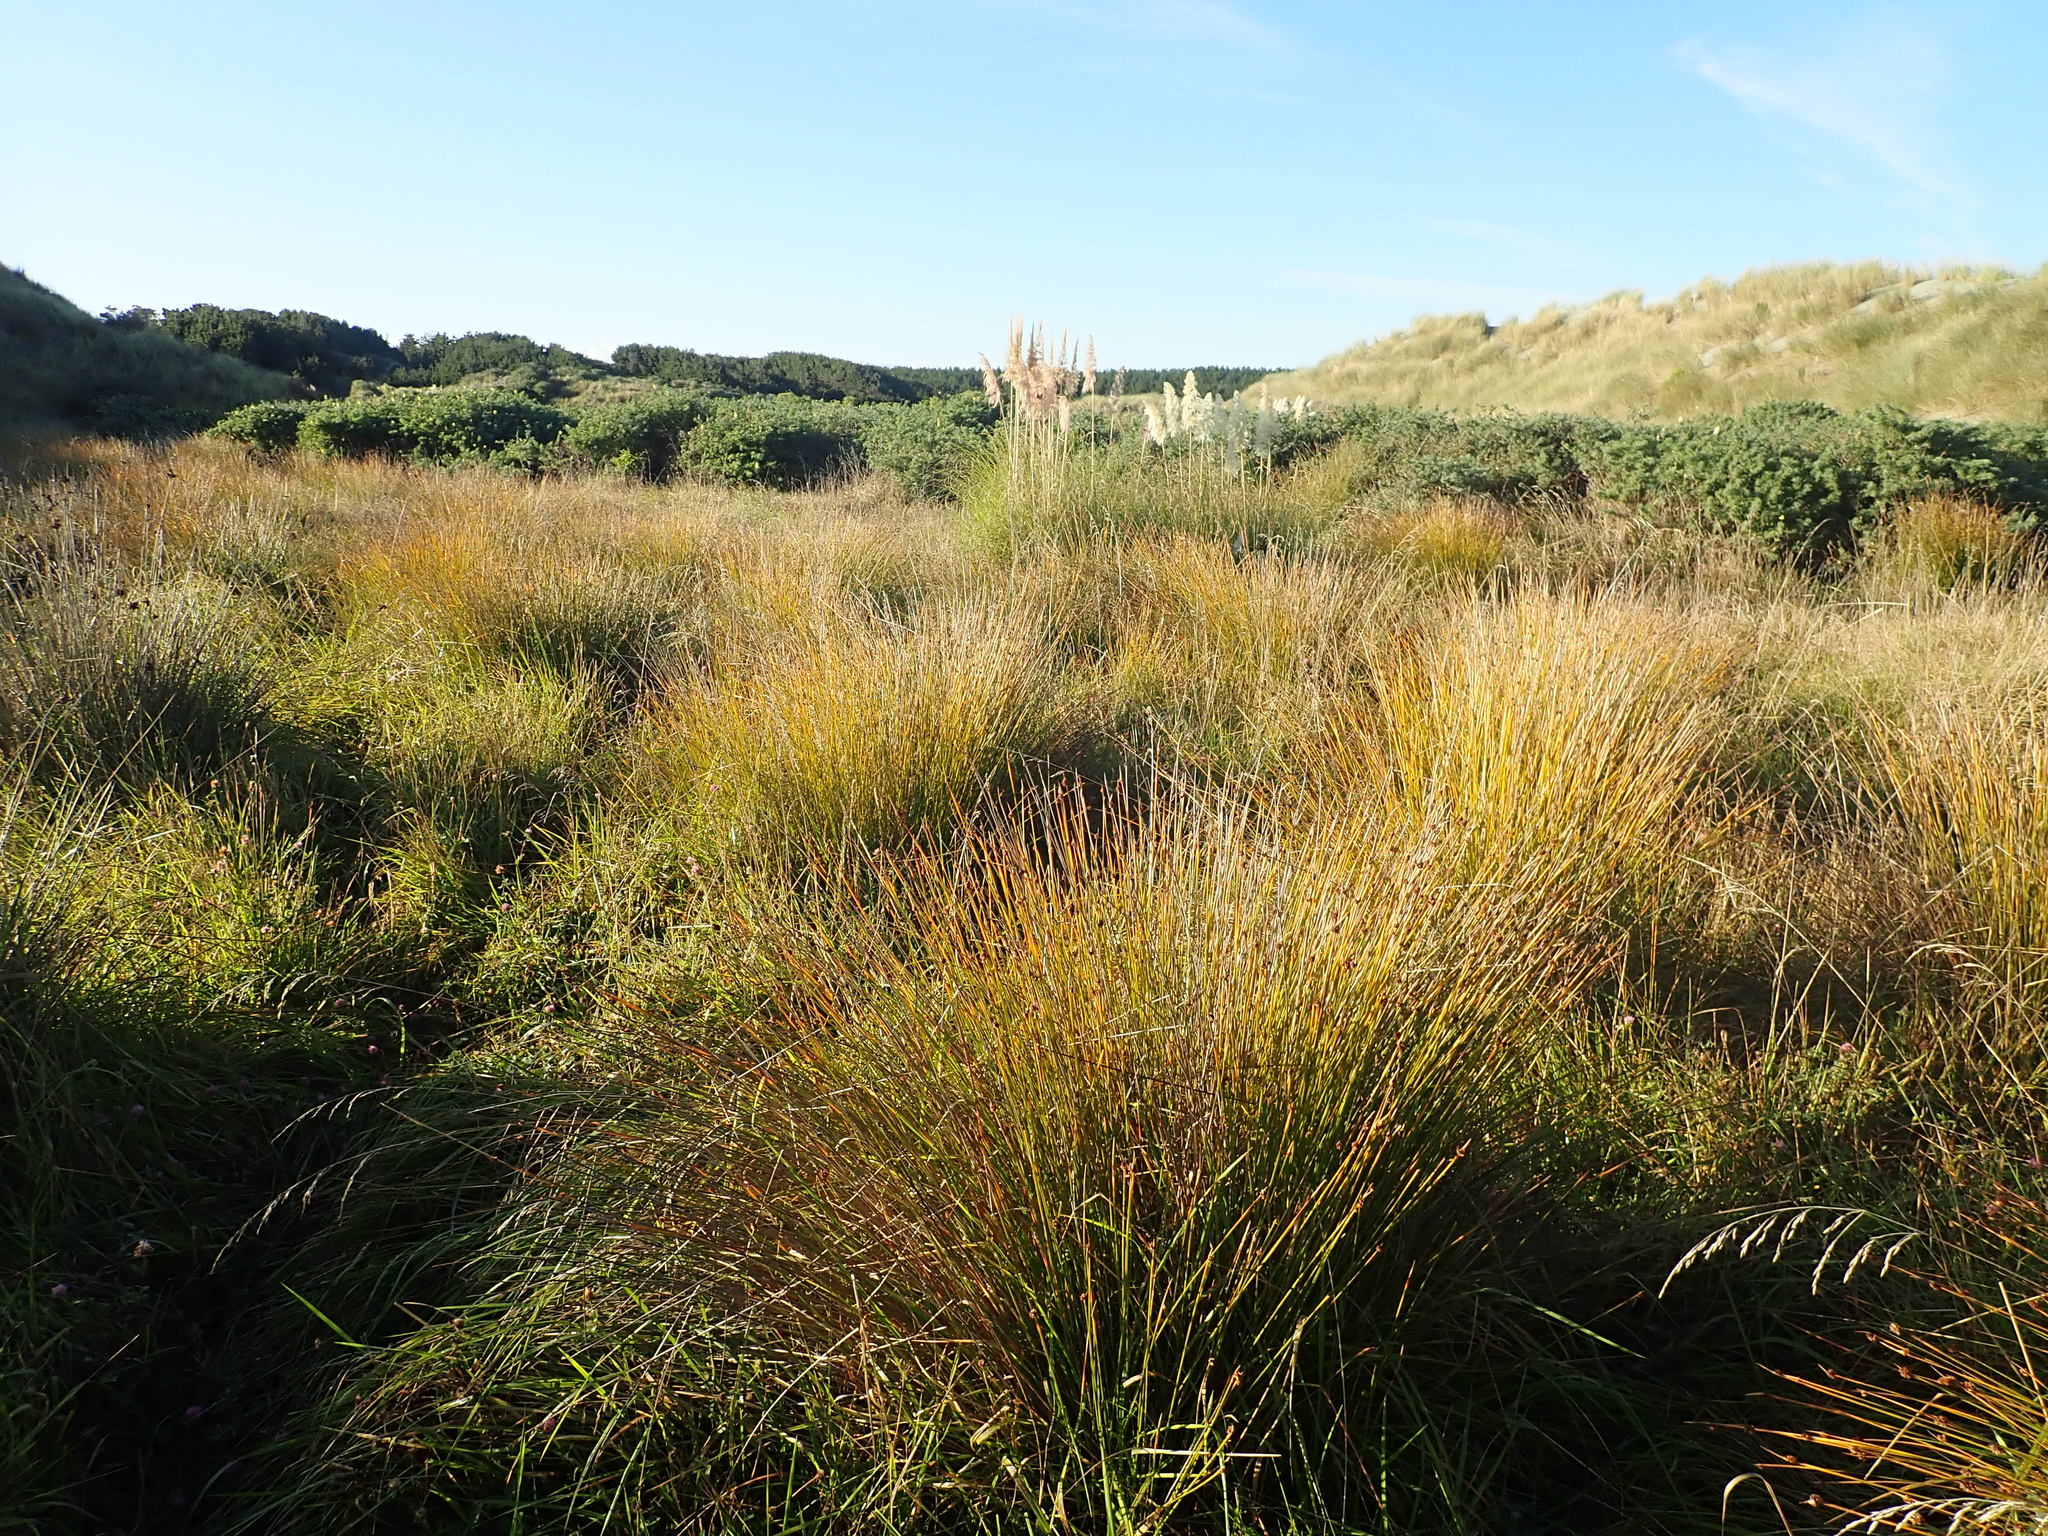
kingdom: Plantae
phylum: Tracheophyta
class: Liliopsida
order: Poales
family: Cyperaceae
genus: Ficinia
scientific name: Ficinia nodosa
